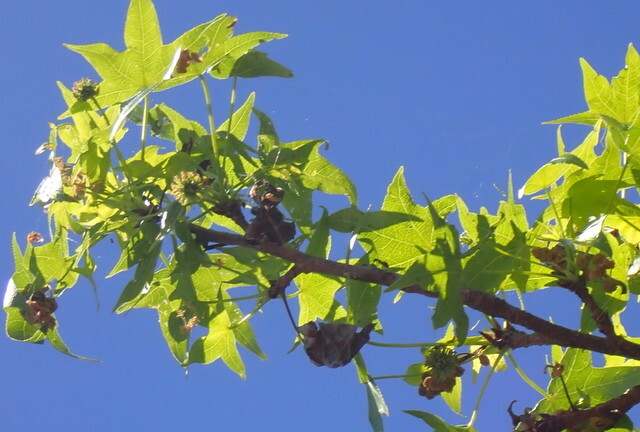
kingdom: Plantae
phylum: Tracheophyta
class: Magnoliopsida
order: Saxifragales
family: Altingiaceae
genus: Liquidambar
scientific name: Liquidambar styraciflua
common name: Sweet gum
